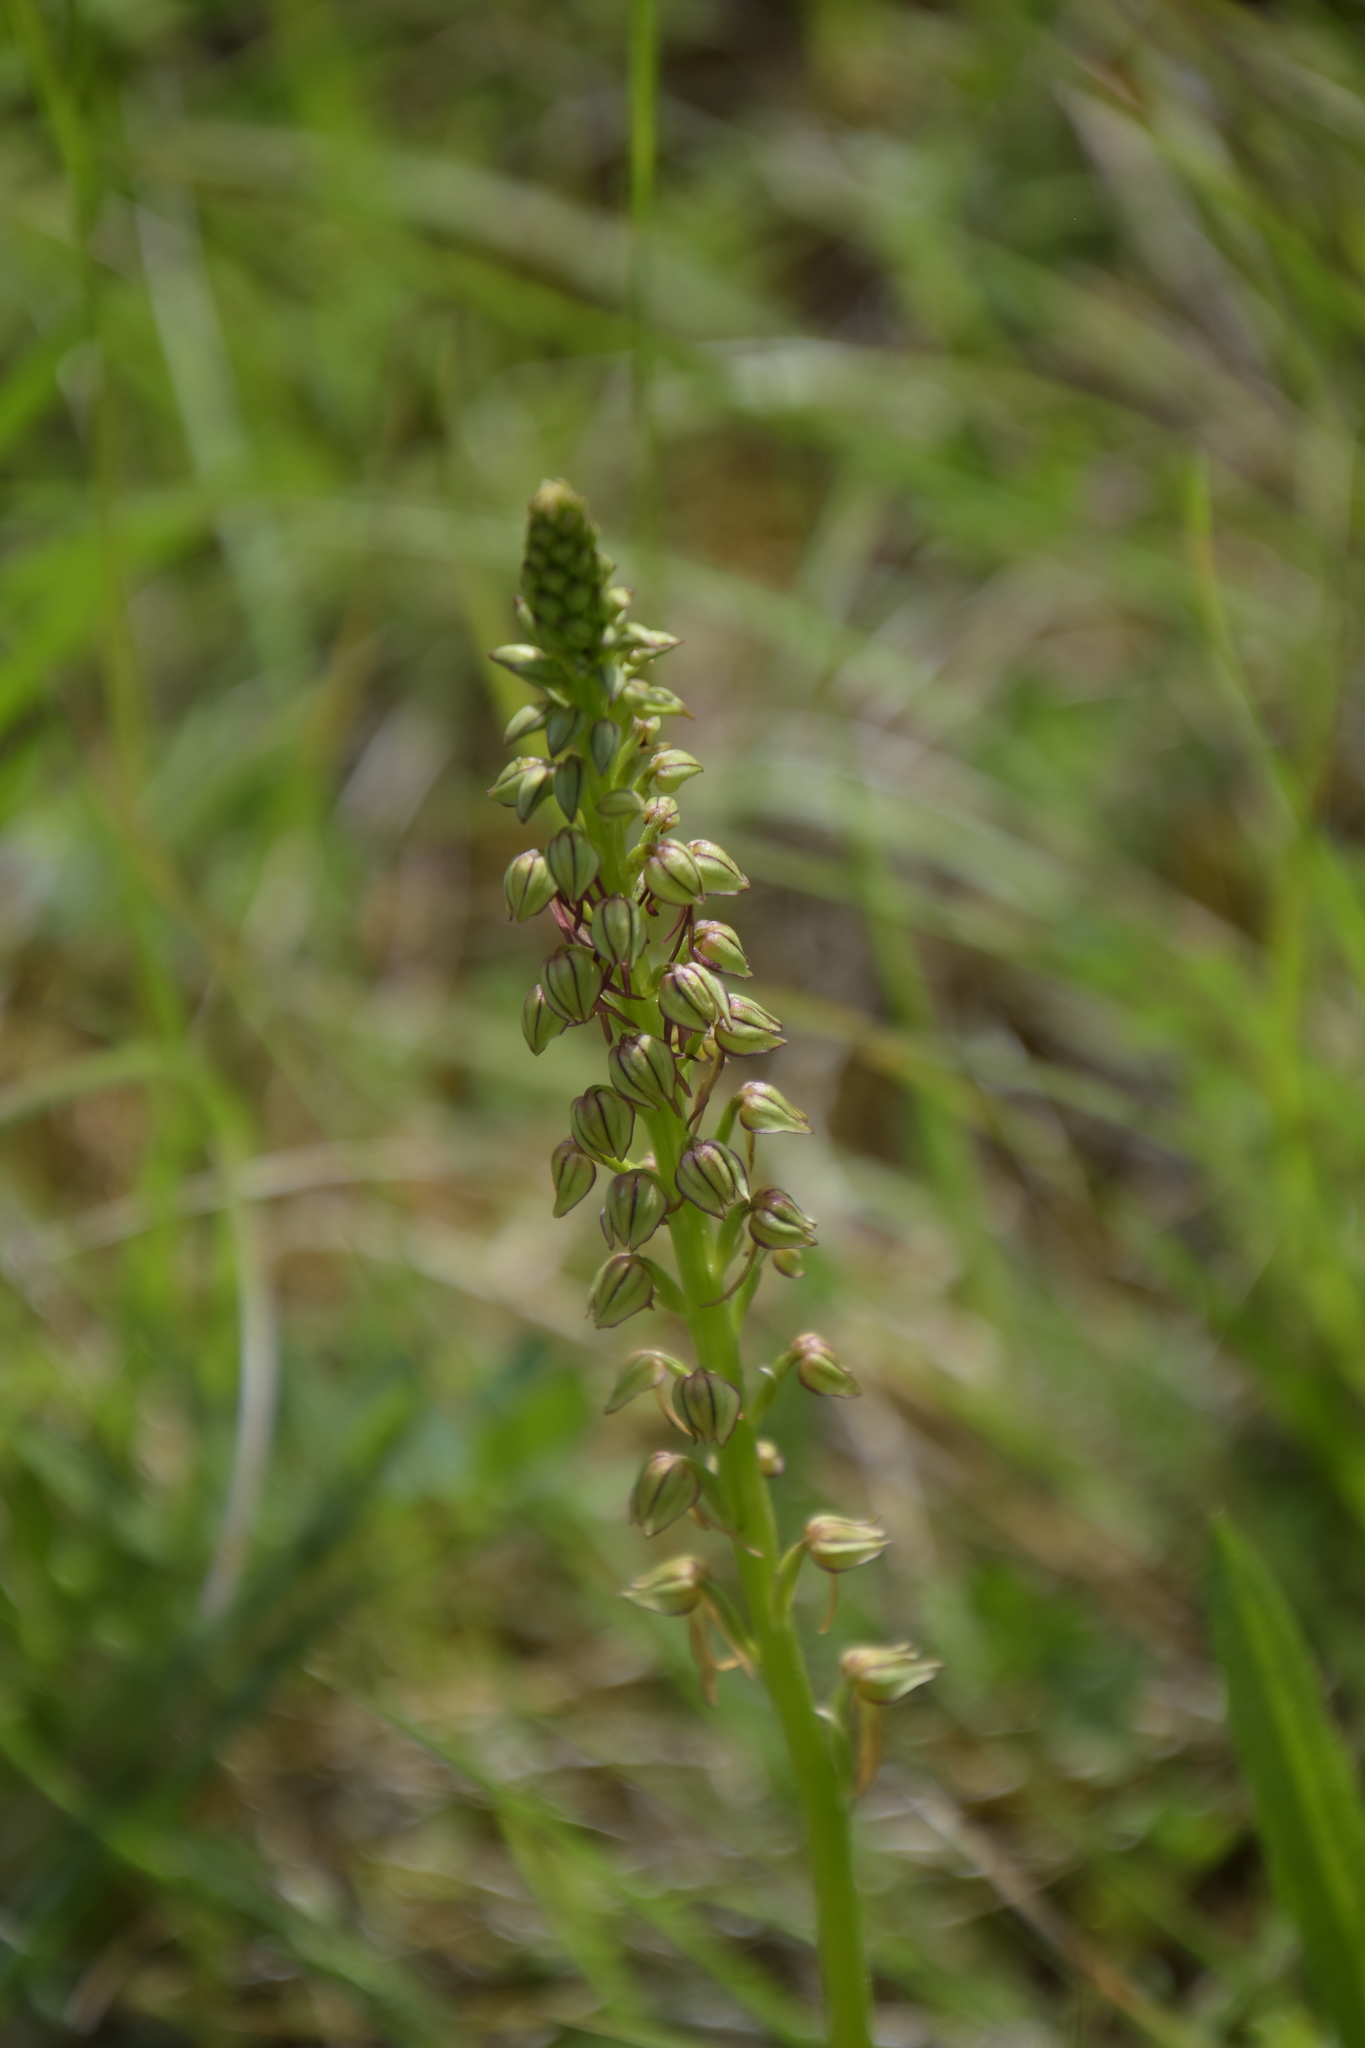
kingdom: Plantae
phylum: Tracheophyta
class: Liliopsida
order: Asparagales
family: Orchidaceae
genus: Orchis
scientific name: Orchis anthropophora
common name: Man orchid
